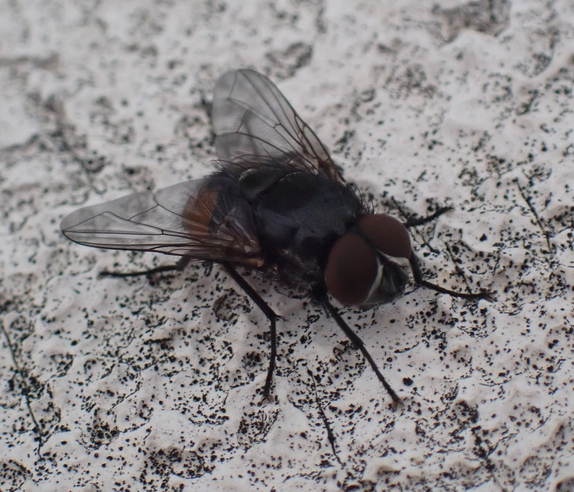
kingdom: Animalia
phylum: Arthropoda
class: Insecta
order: Diptera
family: Muscidae
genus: Musca
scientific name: Musca autumnalis
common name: Face fly
